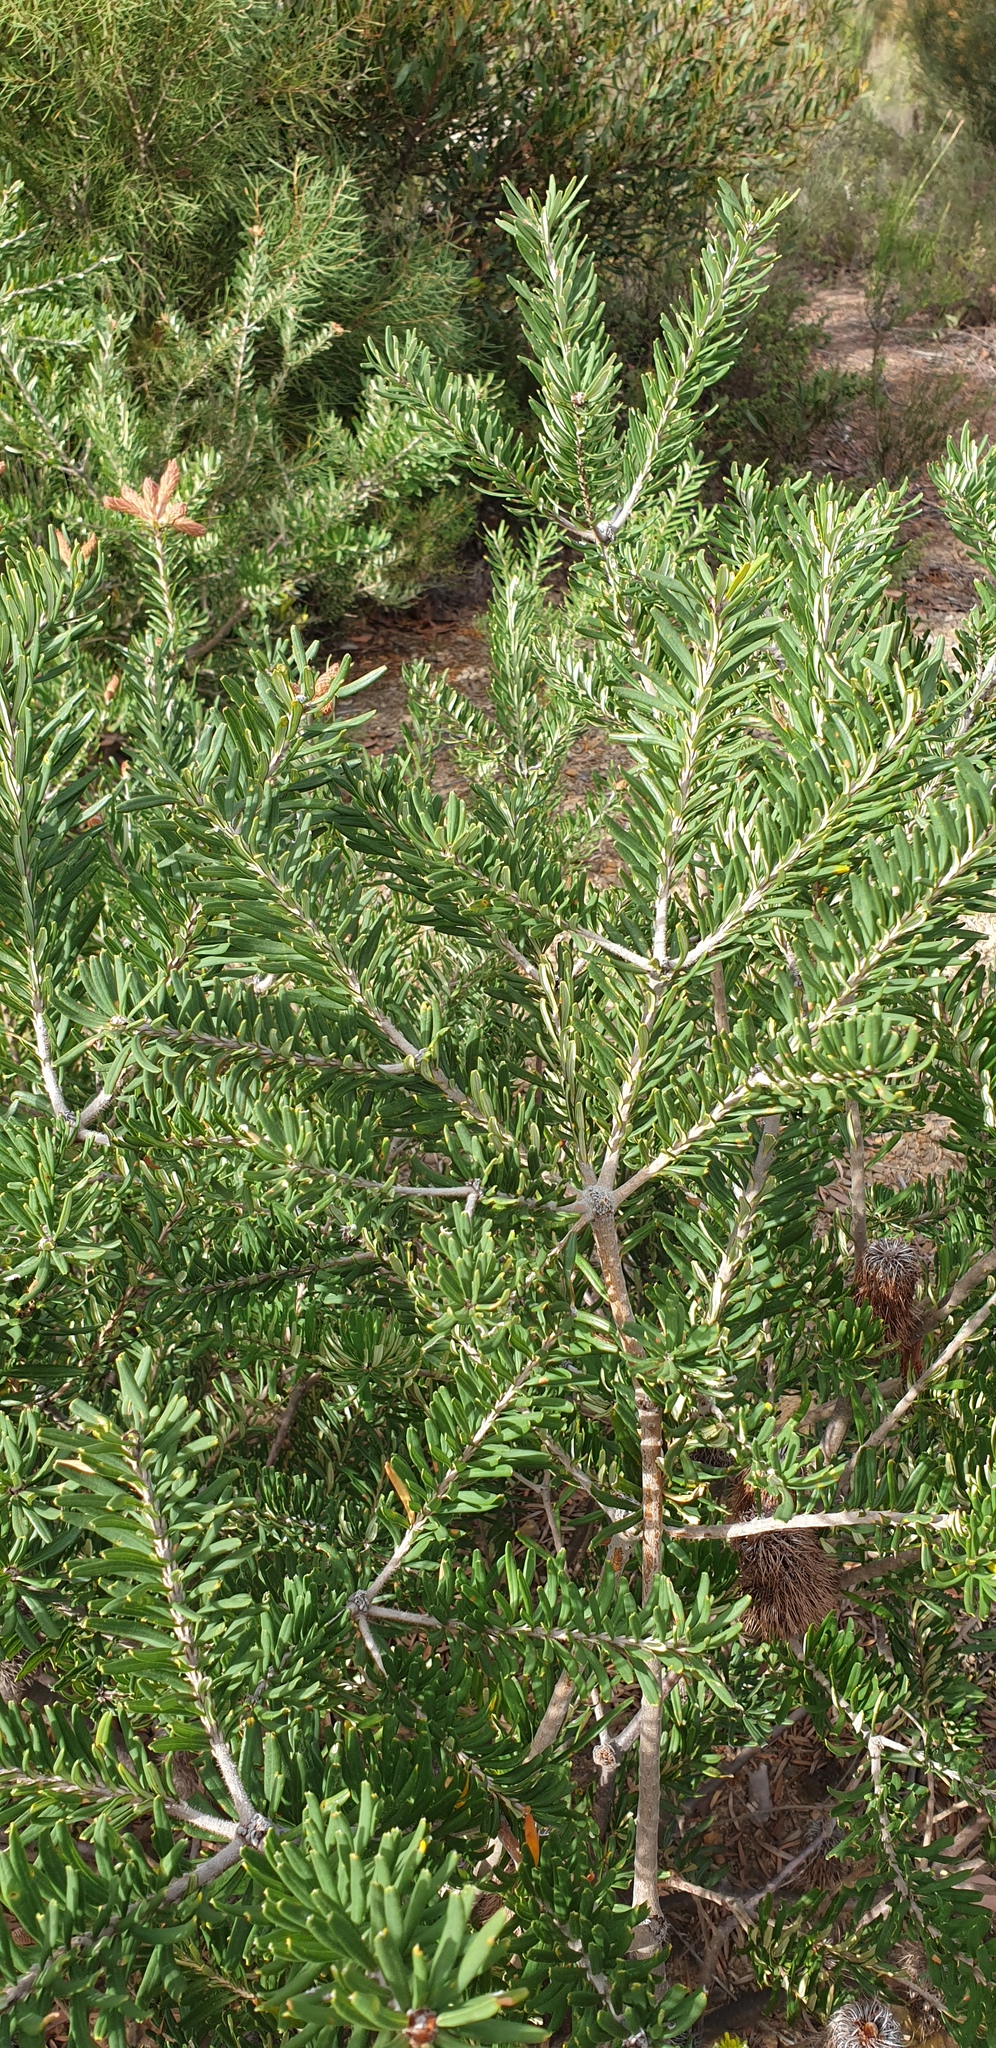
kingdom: Plantae
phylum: Tracheophyta
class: Magnoliopsida
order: Proteales
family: Proteaceae
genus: Banksia
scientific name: Banksia marginata
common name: Silver banksia
